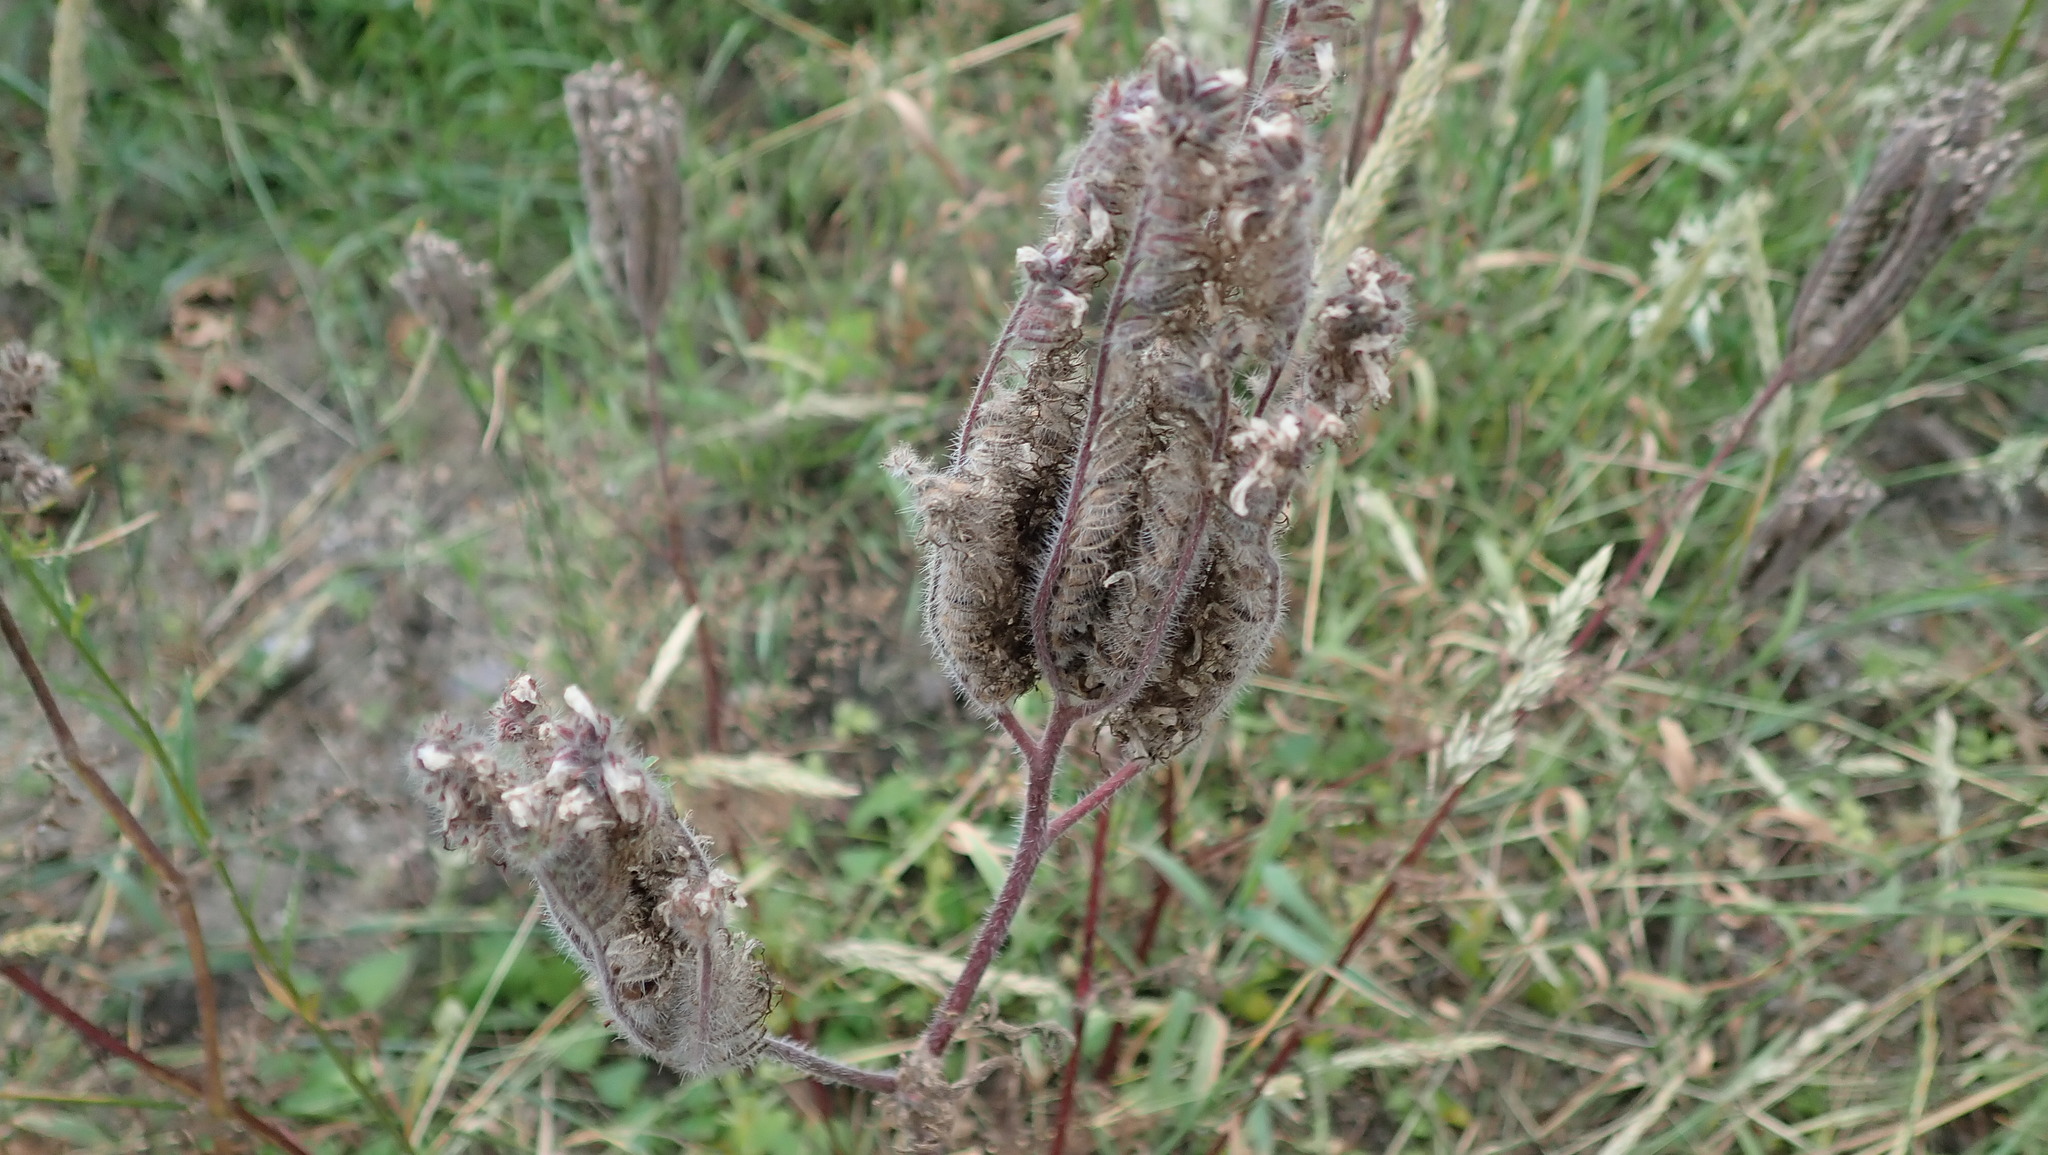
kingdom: Plantae
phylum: Tracheophyta
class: Magnoliopsida
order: Boraginales
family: Hydrophyllaceae
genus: Phacelia
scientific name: Phacelia tanacetifolia
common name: Phacelia
